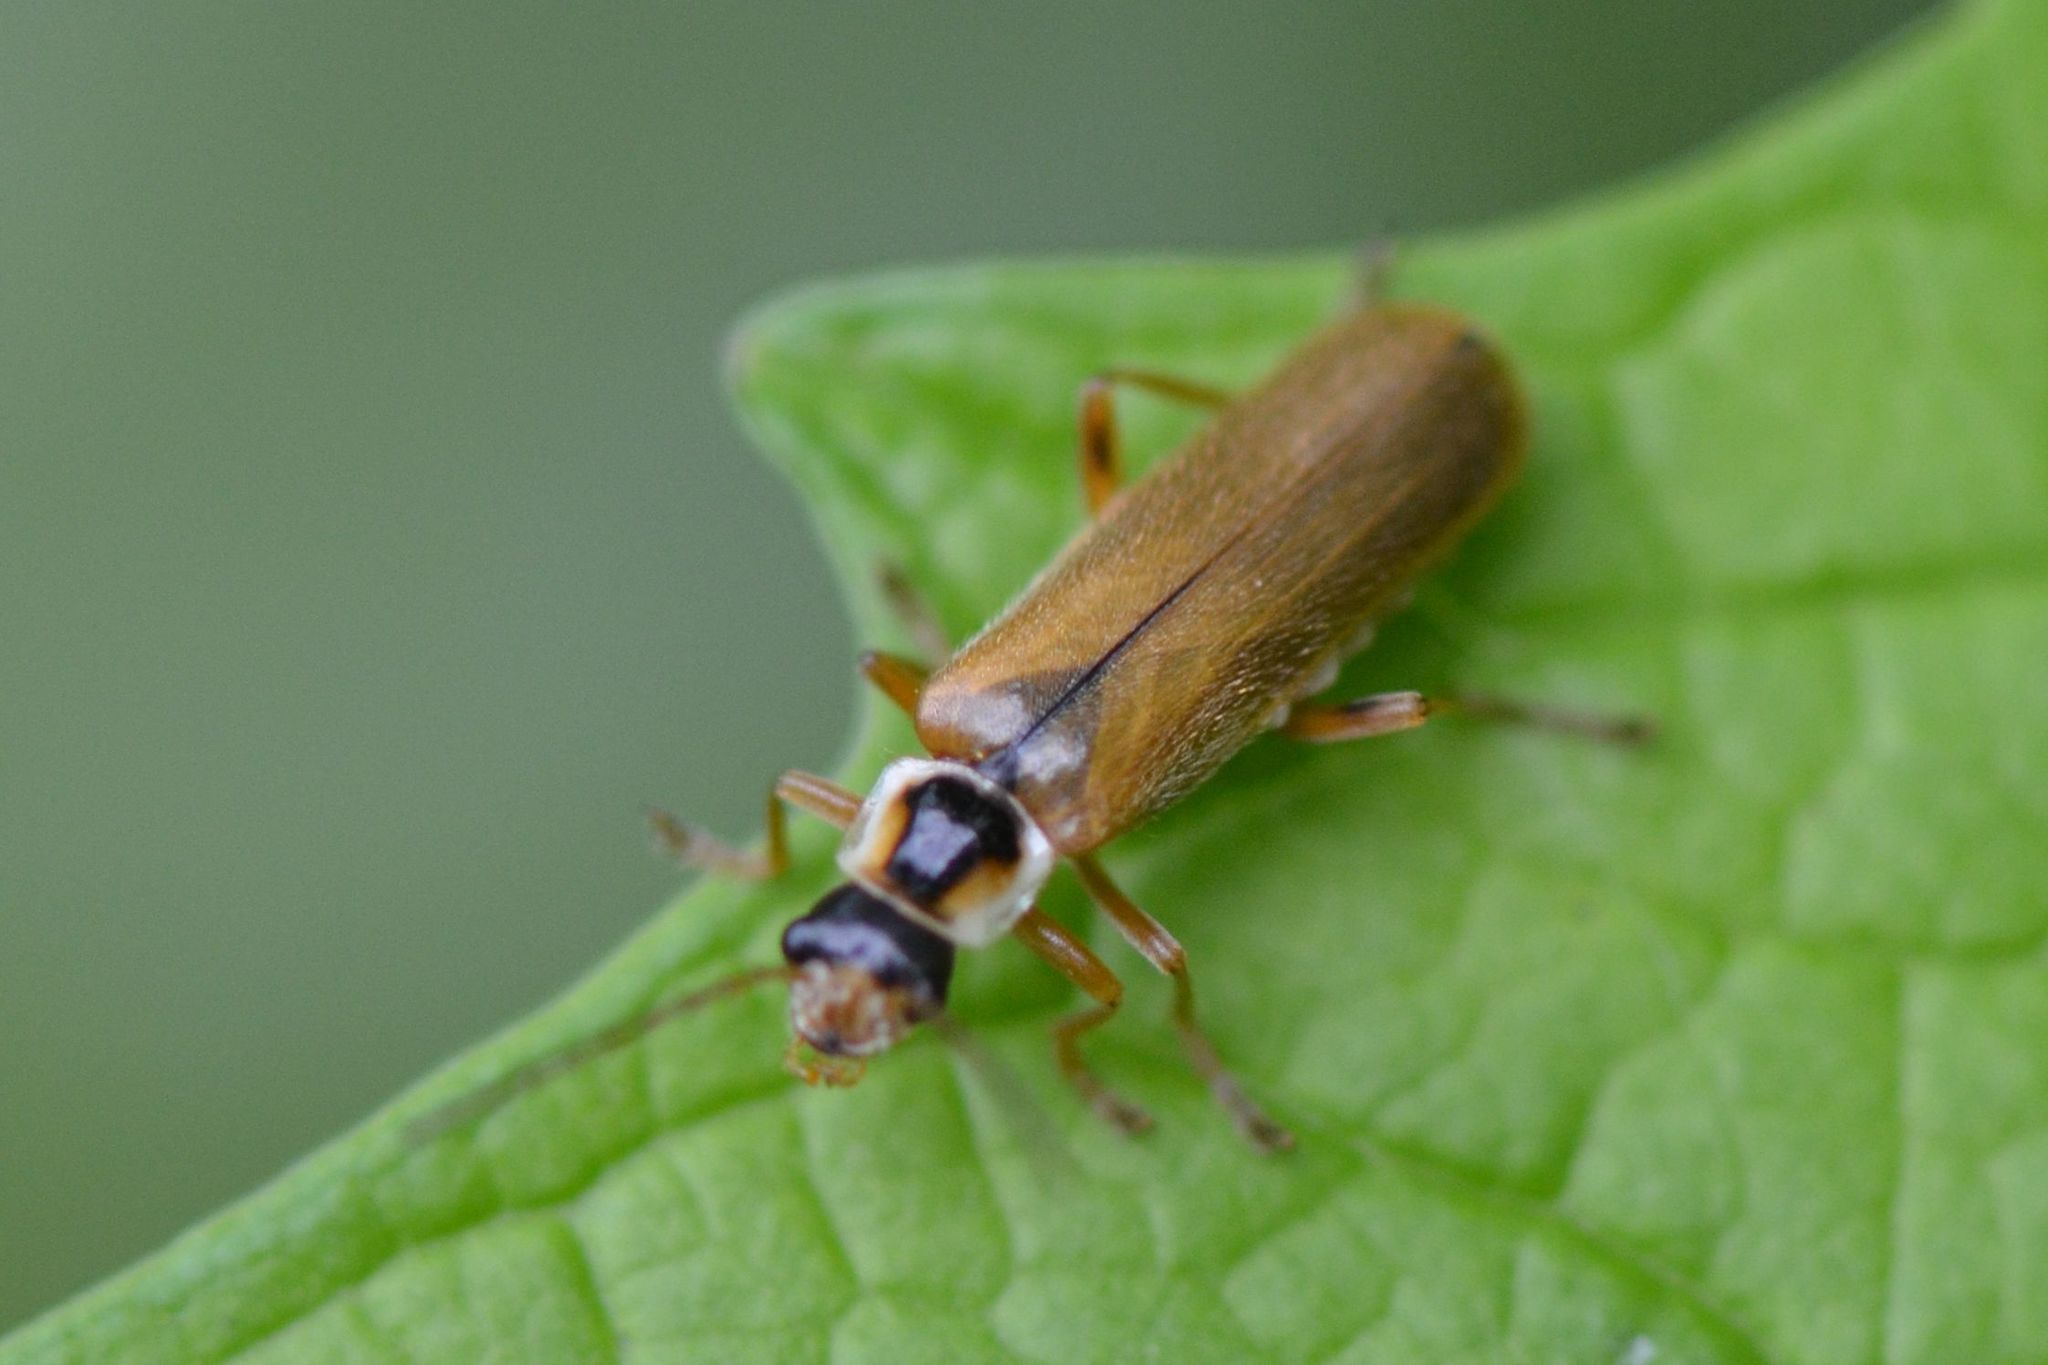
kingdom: Animalia
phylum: Arthropoda
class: Insecta
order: Coleoptera
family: Cantharidae
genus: Cantharis
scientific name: Cantharis decipiens
